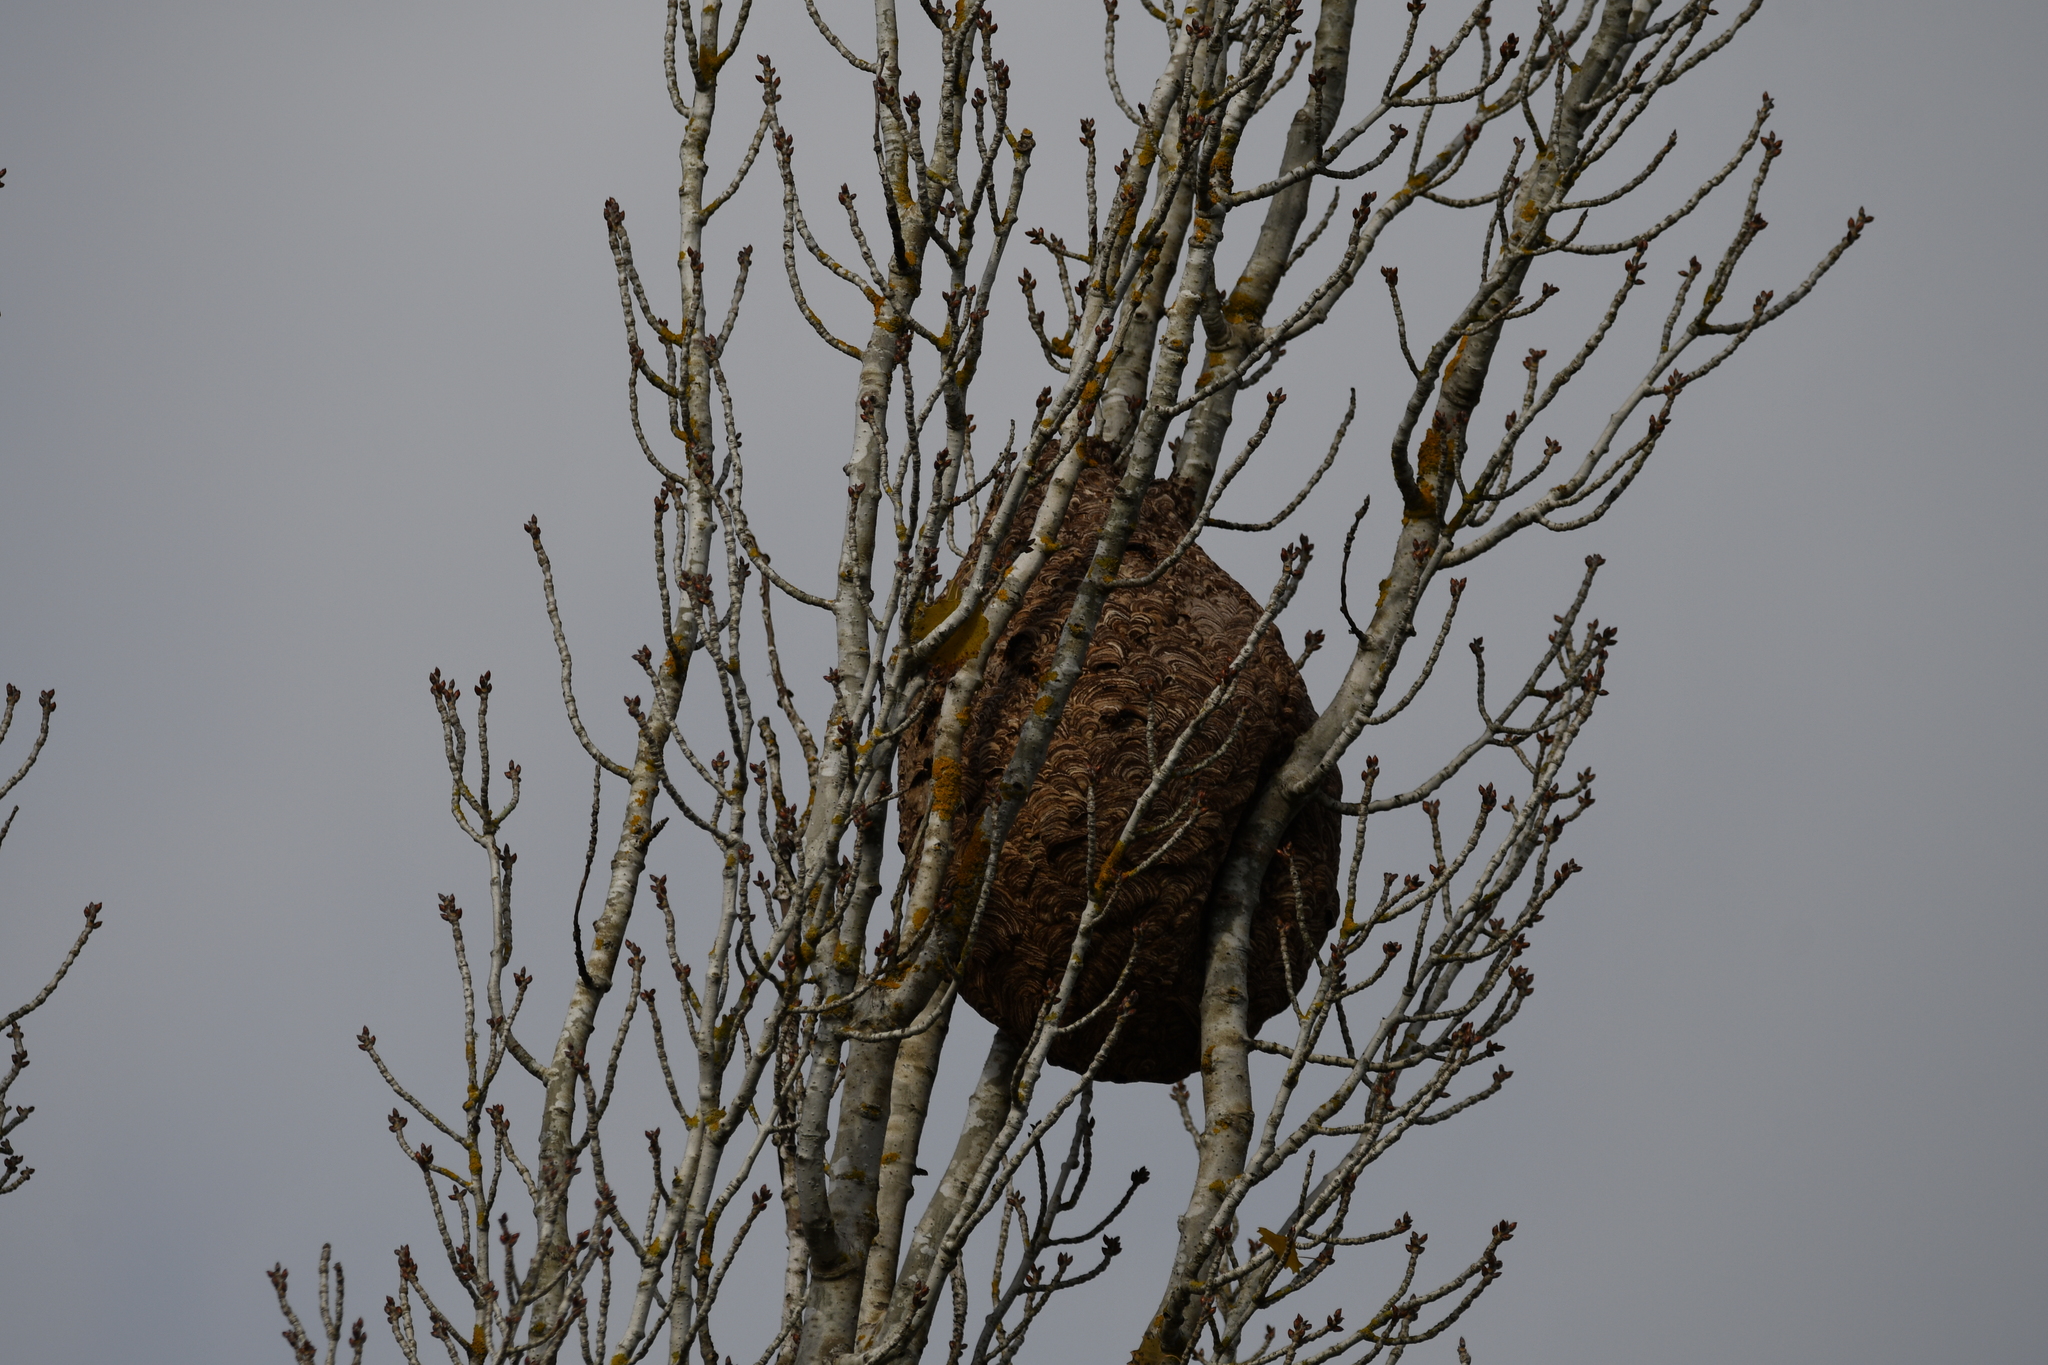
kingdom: Animalia
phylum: Arthropoda
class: Insecta
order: Hymenoptera
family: Vespidae
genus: Vespa
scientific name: Vespa velutina
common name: Asian hornet
